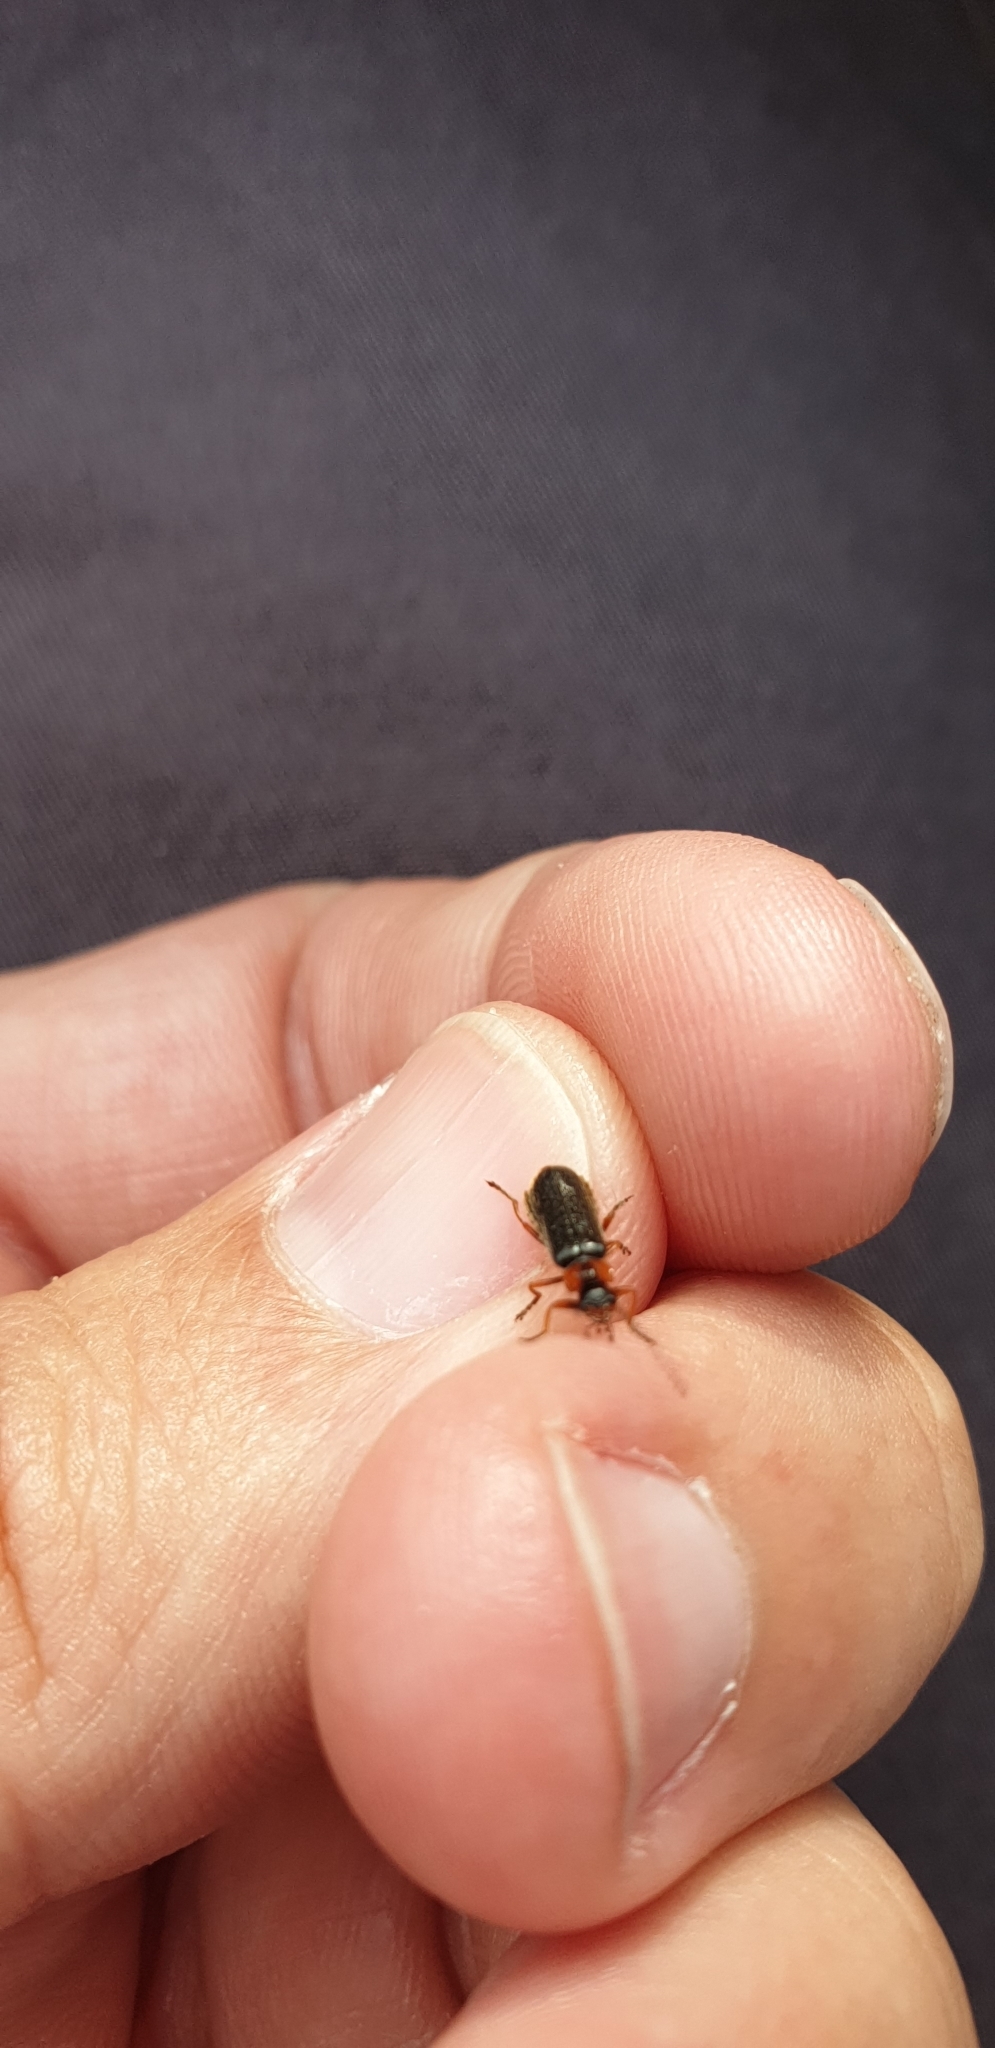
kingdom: Animalia
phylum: Arthropoda
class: Insecta
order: Coleoptera
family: Cantharidae
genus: Cantharis
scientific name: Cantharis flavilabris
